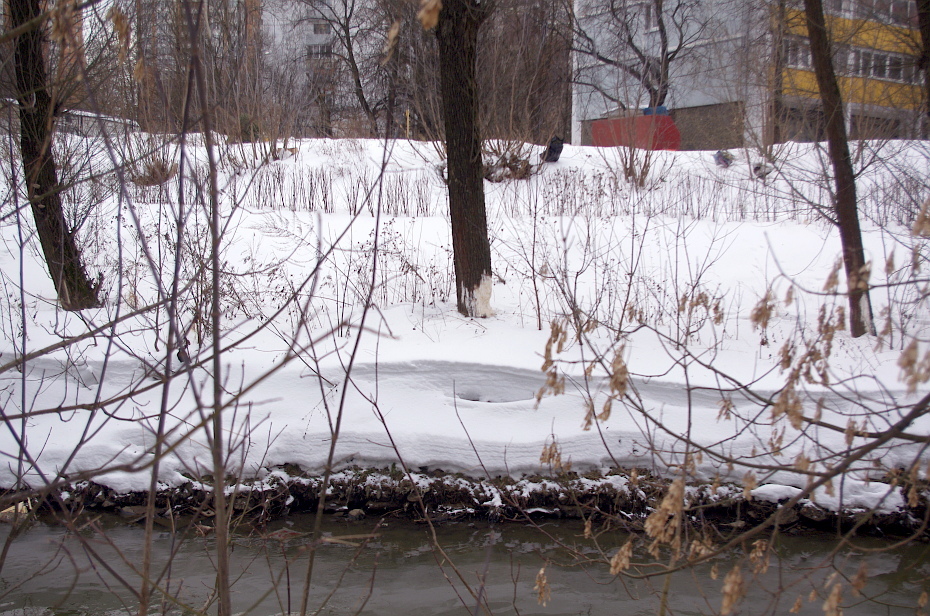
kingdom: Animalia
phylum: Chordata
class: Mammalia
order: Rodentia
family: Castoridae
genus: Castor
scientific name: Castor fiber
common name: Eurasian beaver
